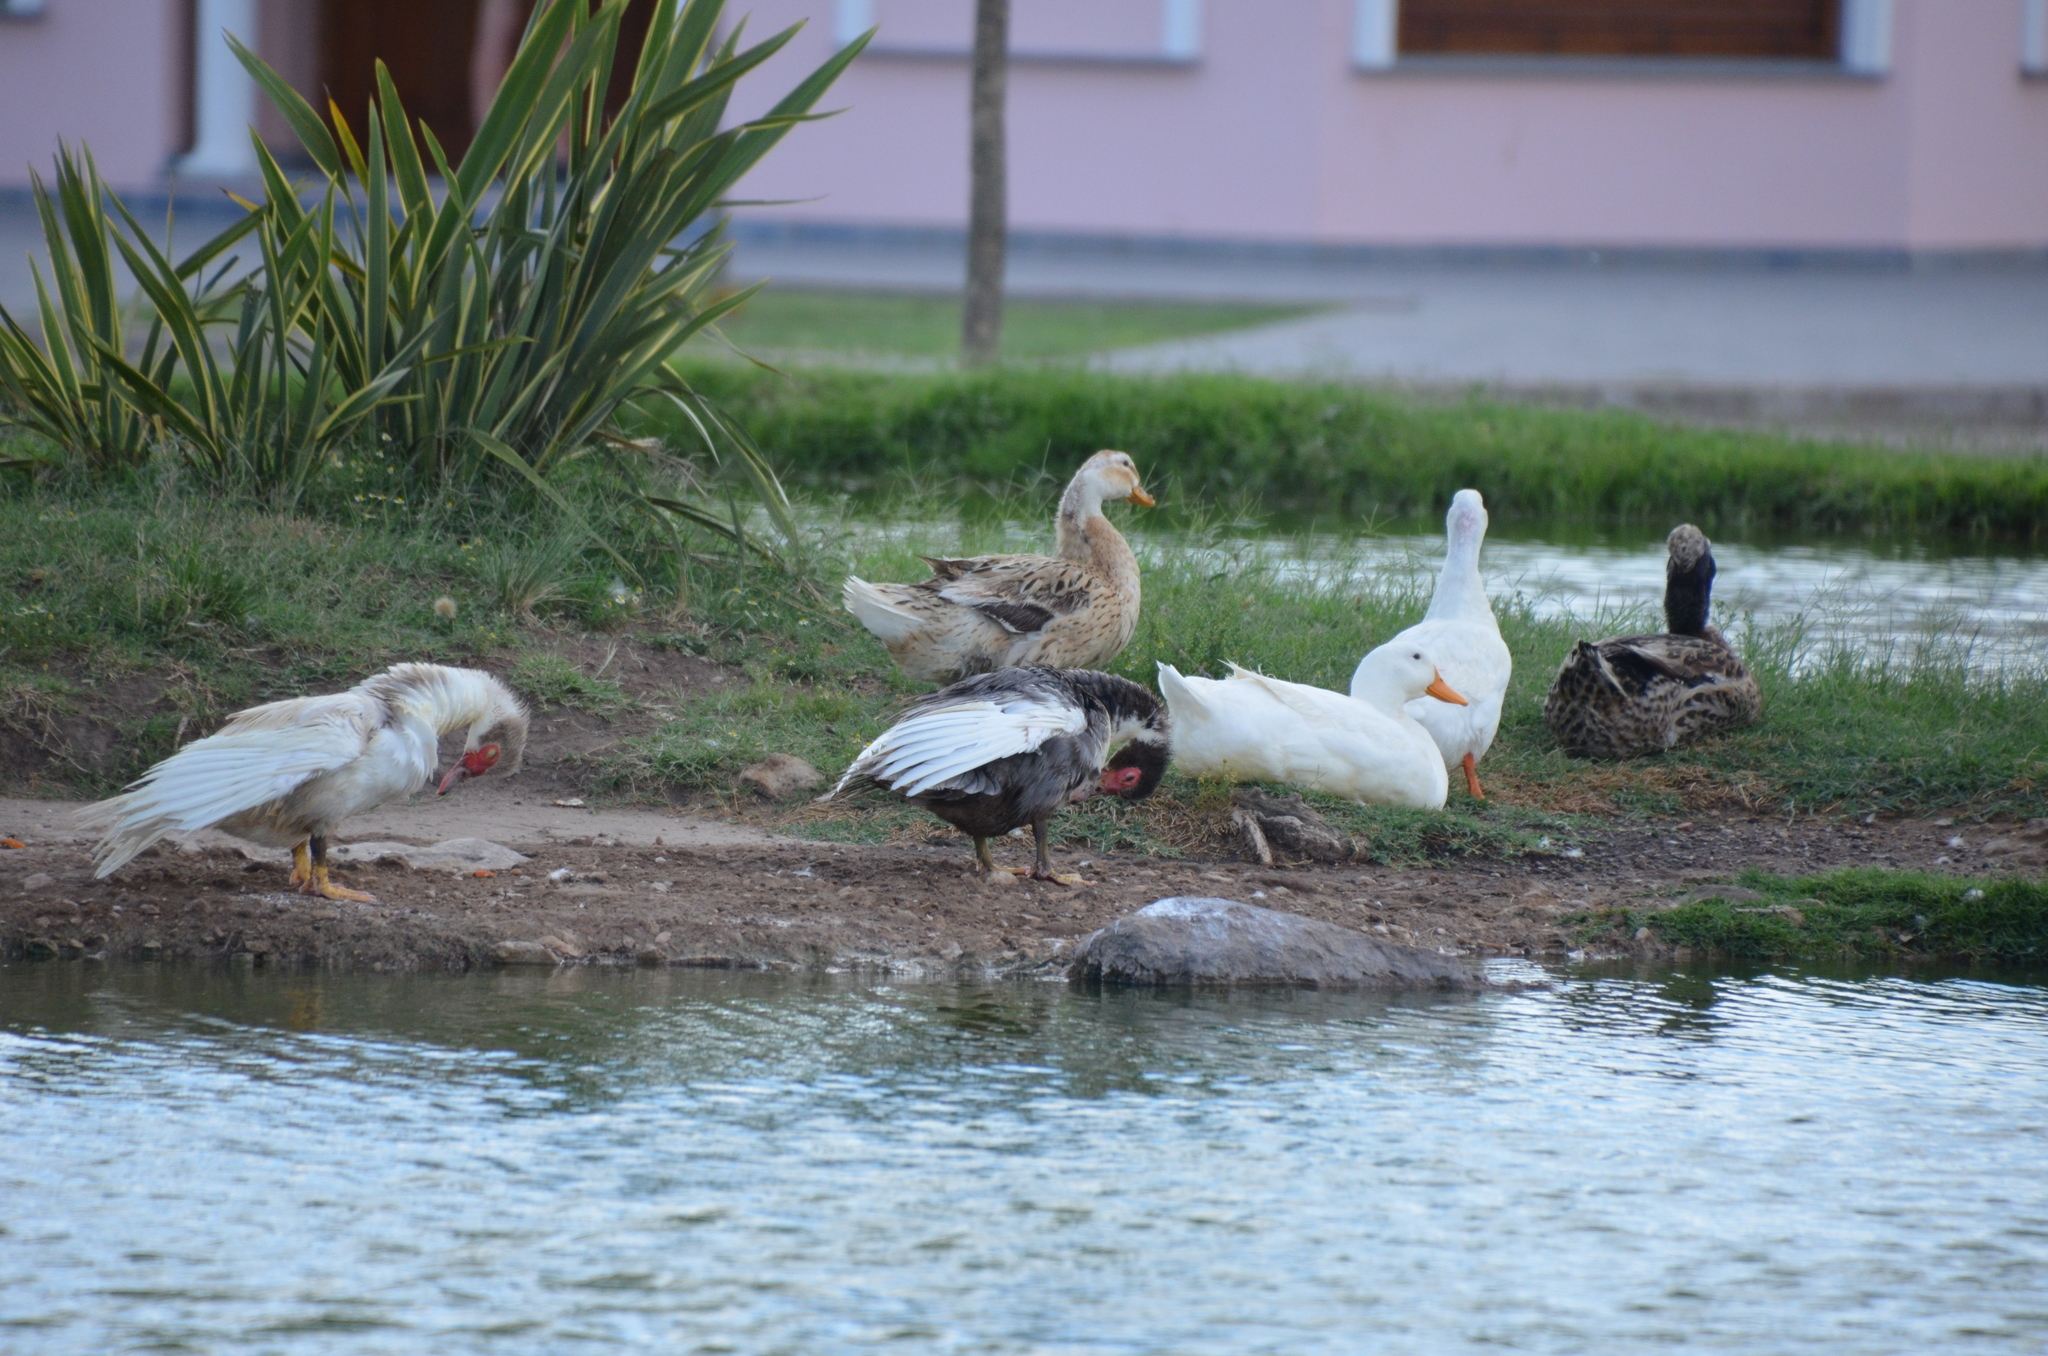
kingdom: Animalia
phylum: Chordata
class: Aves
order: Anseriformes
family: Anatidae
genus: Anser
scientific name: Anser anser
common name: Greylag goose
